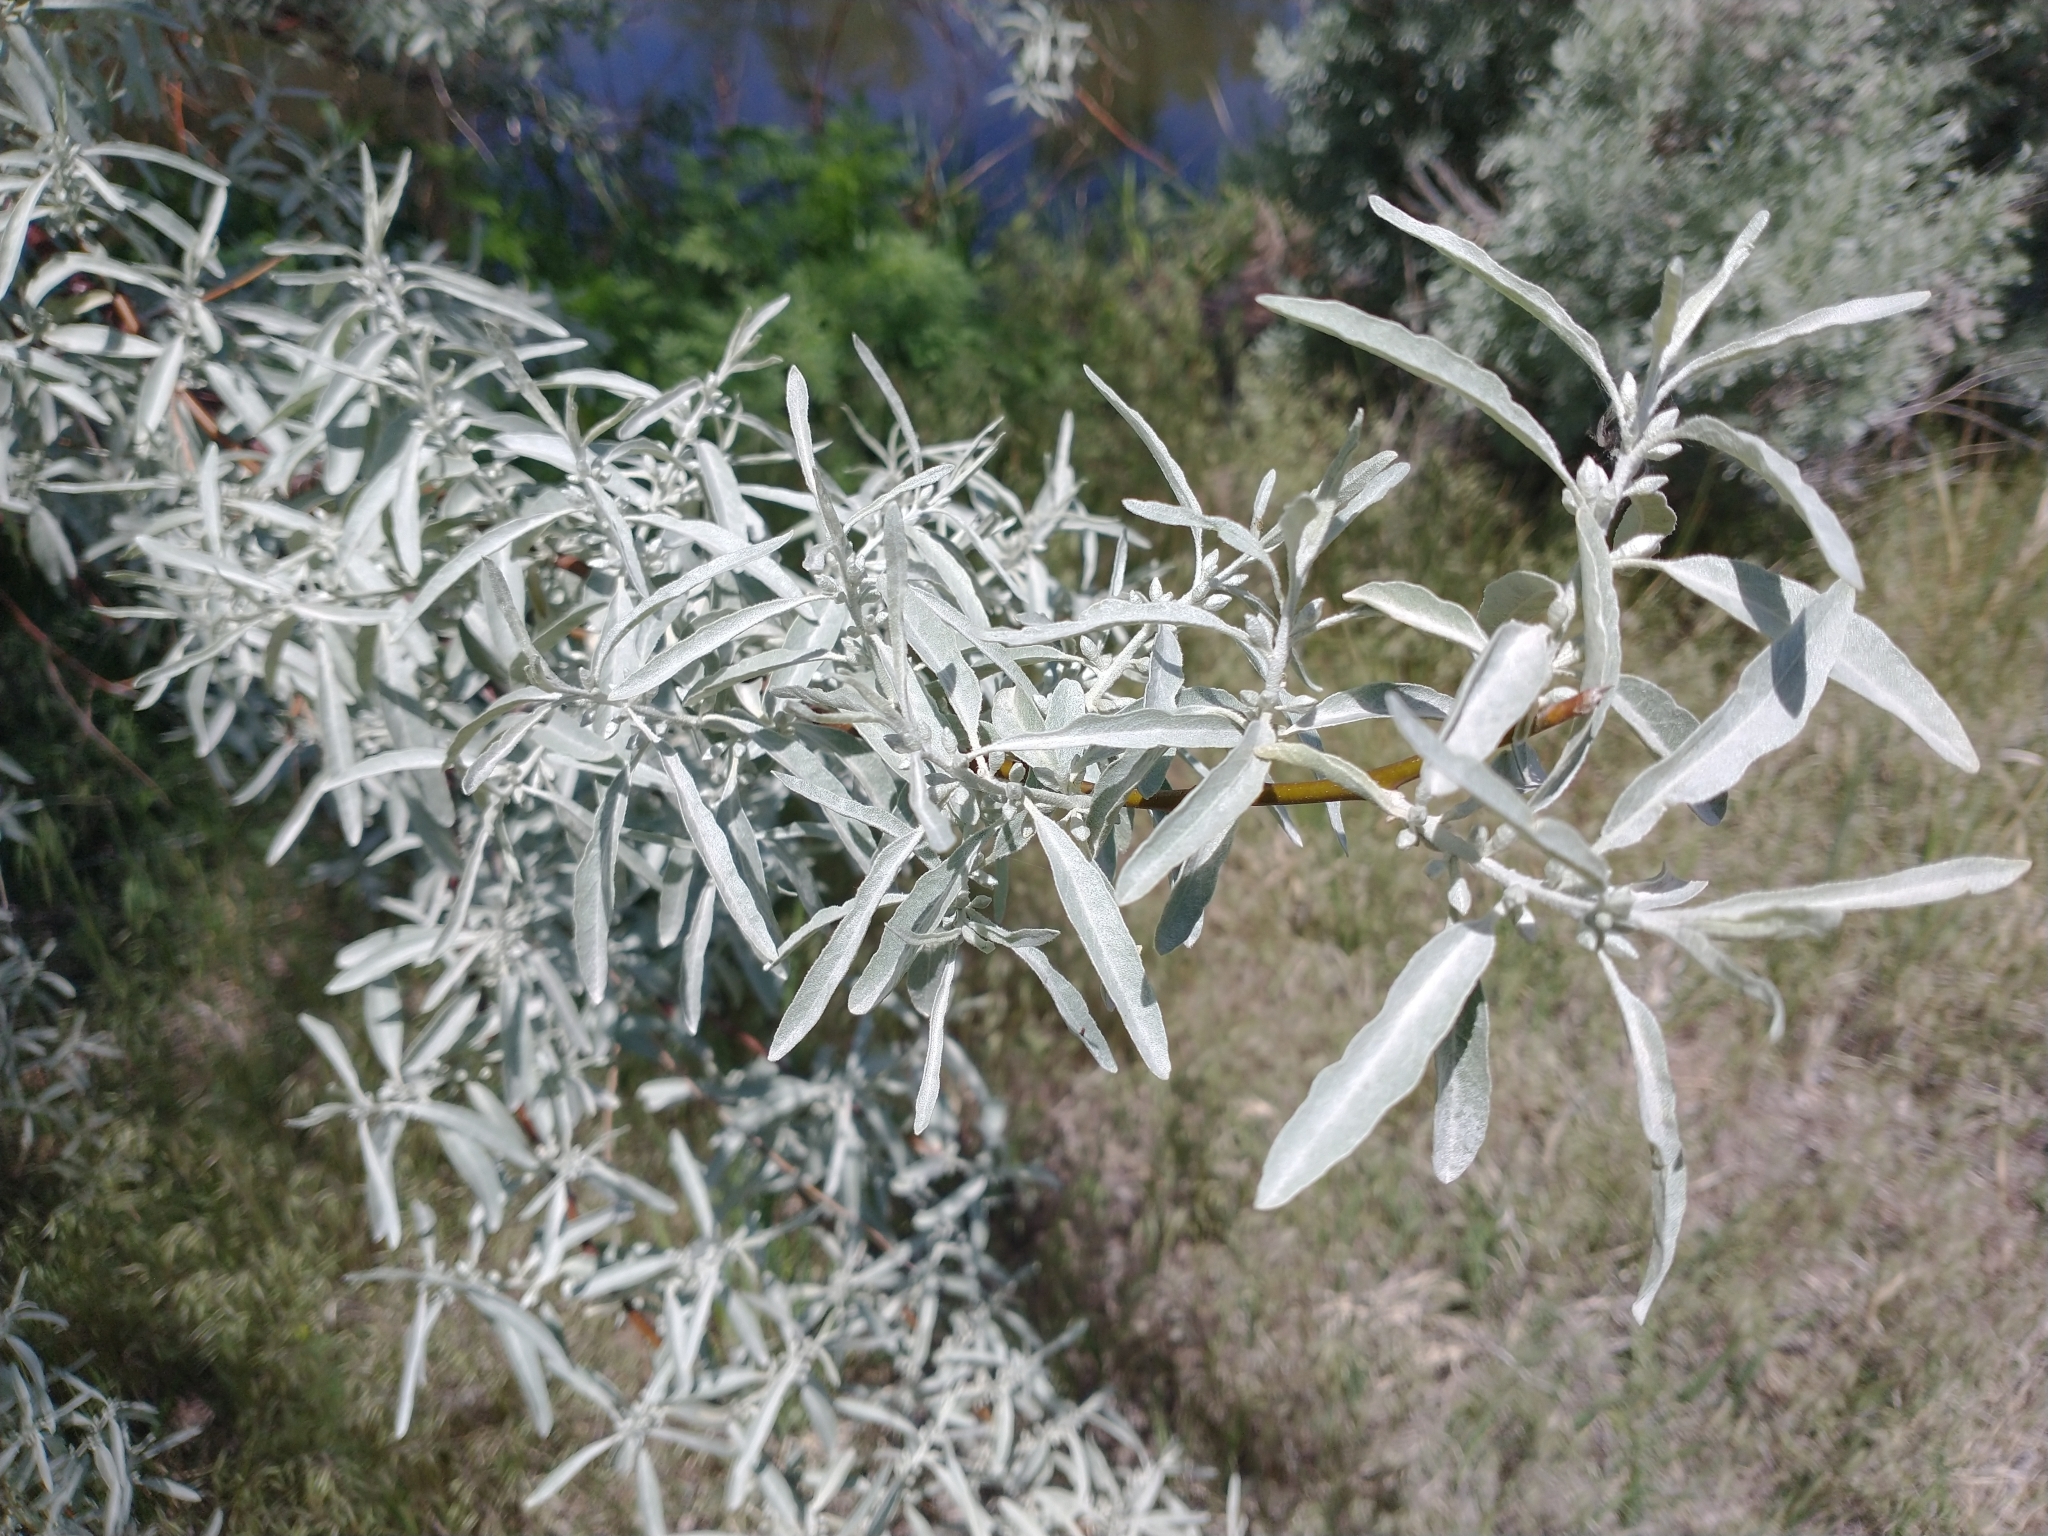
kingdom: Plantae
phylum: Tracheophyta
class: Magnoliopsida
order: Rosales
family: Elaeagnaceae
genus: Elaeagnus
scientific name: Elaeagnus angustifolia
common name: Russian olive
